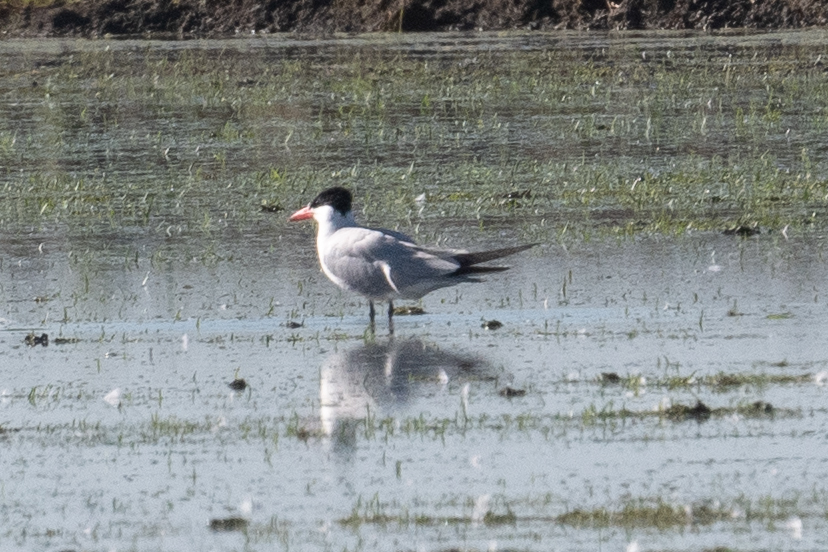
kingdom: Animalia
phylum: Chordata
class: Aves
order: Charadriiformes
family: Laridae
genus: Hydroprogne
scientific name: Hydroprogne caspia
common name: Caspian tern
